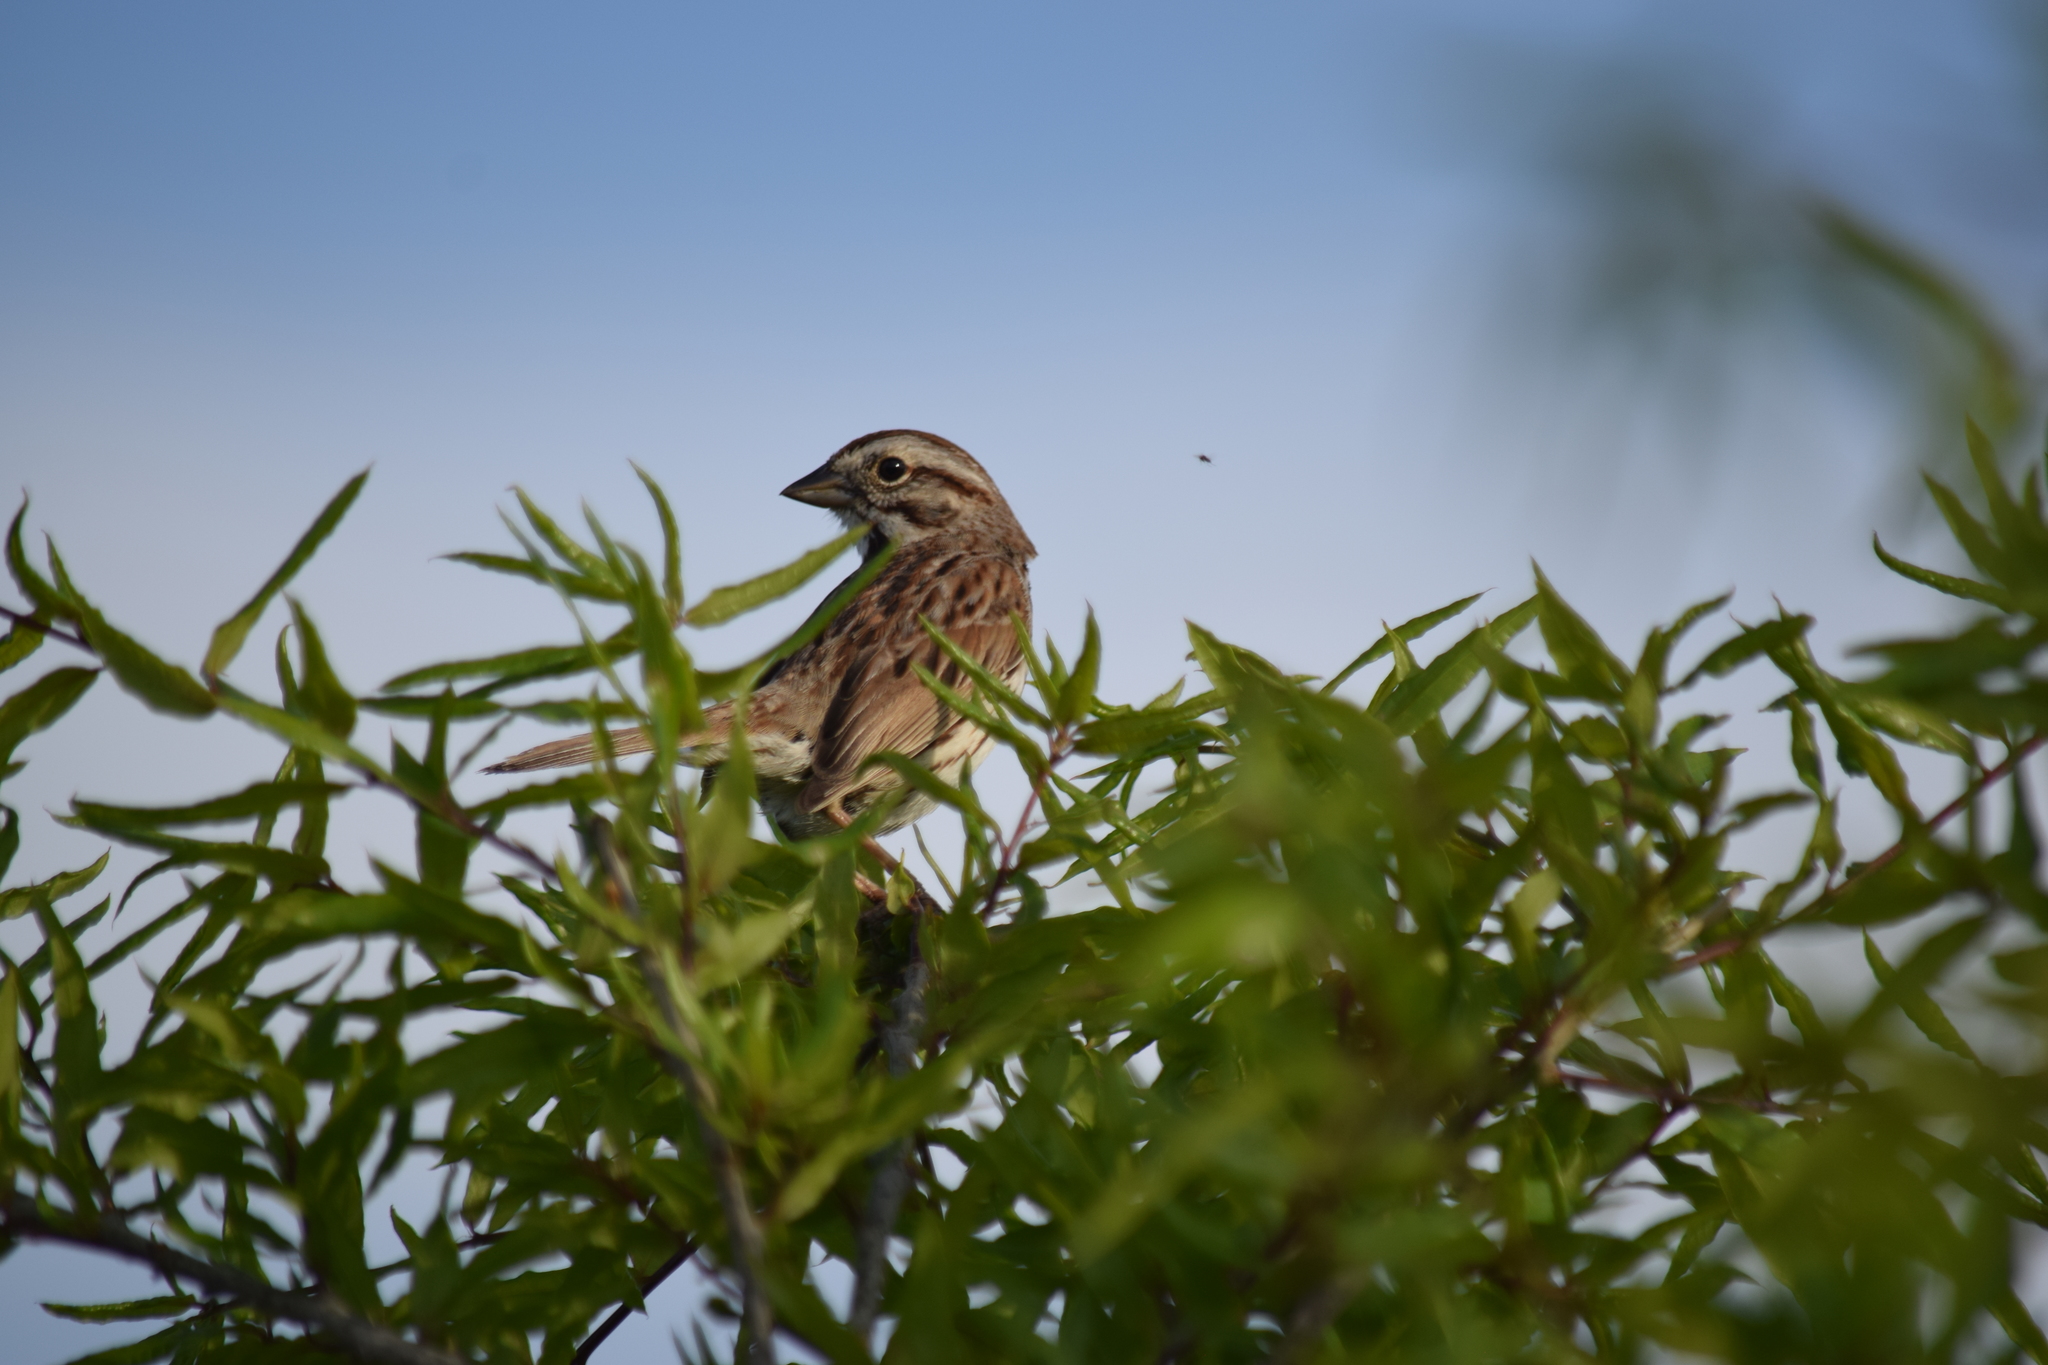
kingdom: Animalia
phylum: Chordata
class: Aves
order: Passeriformes
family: Passerellidae
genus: Melospiza
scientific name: Melospiza melodia
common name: Song sparrow
